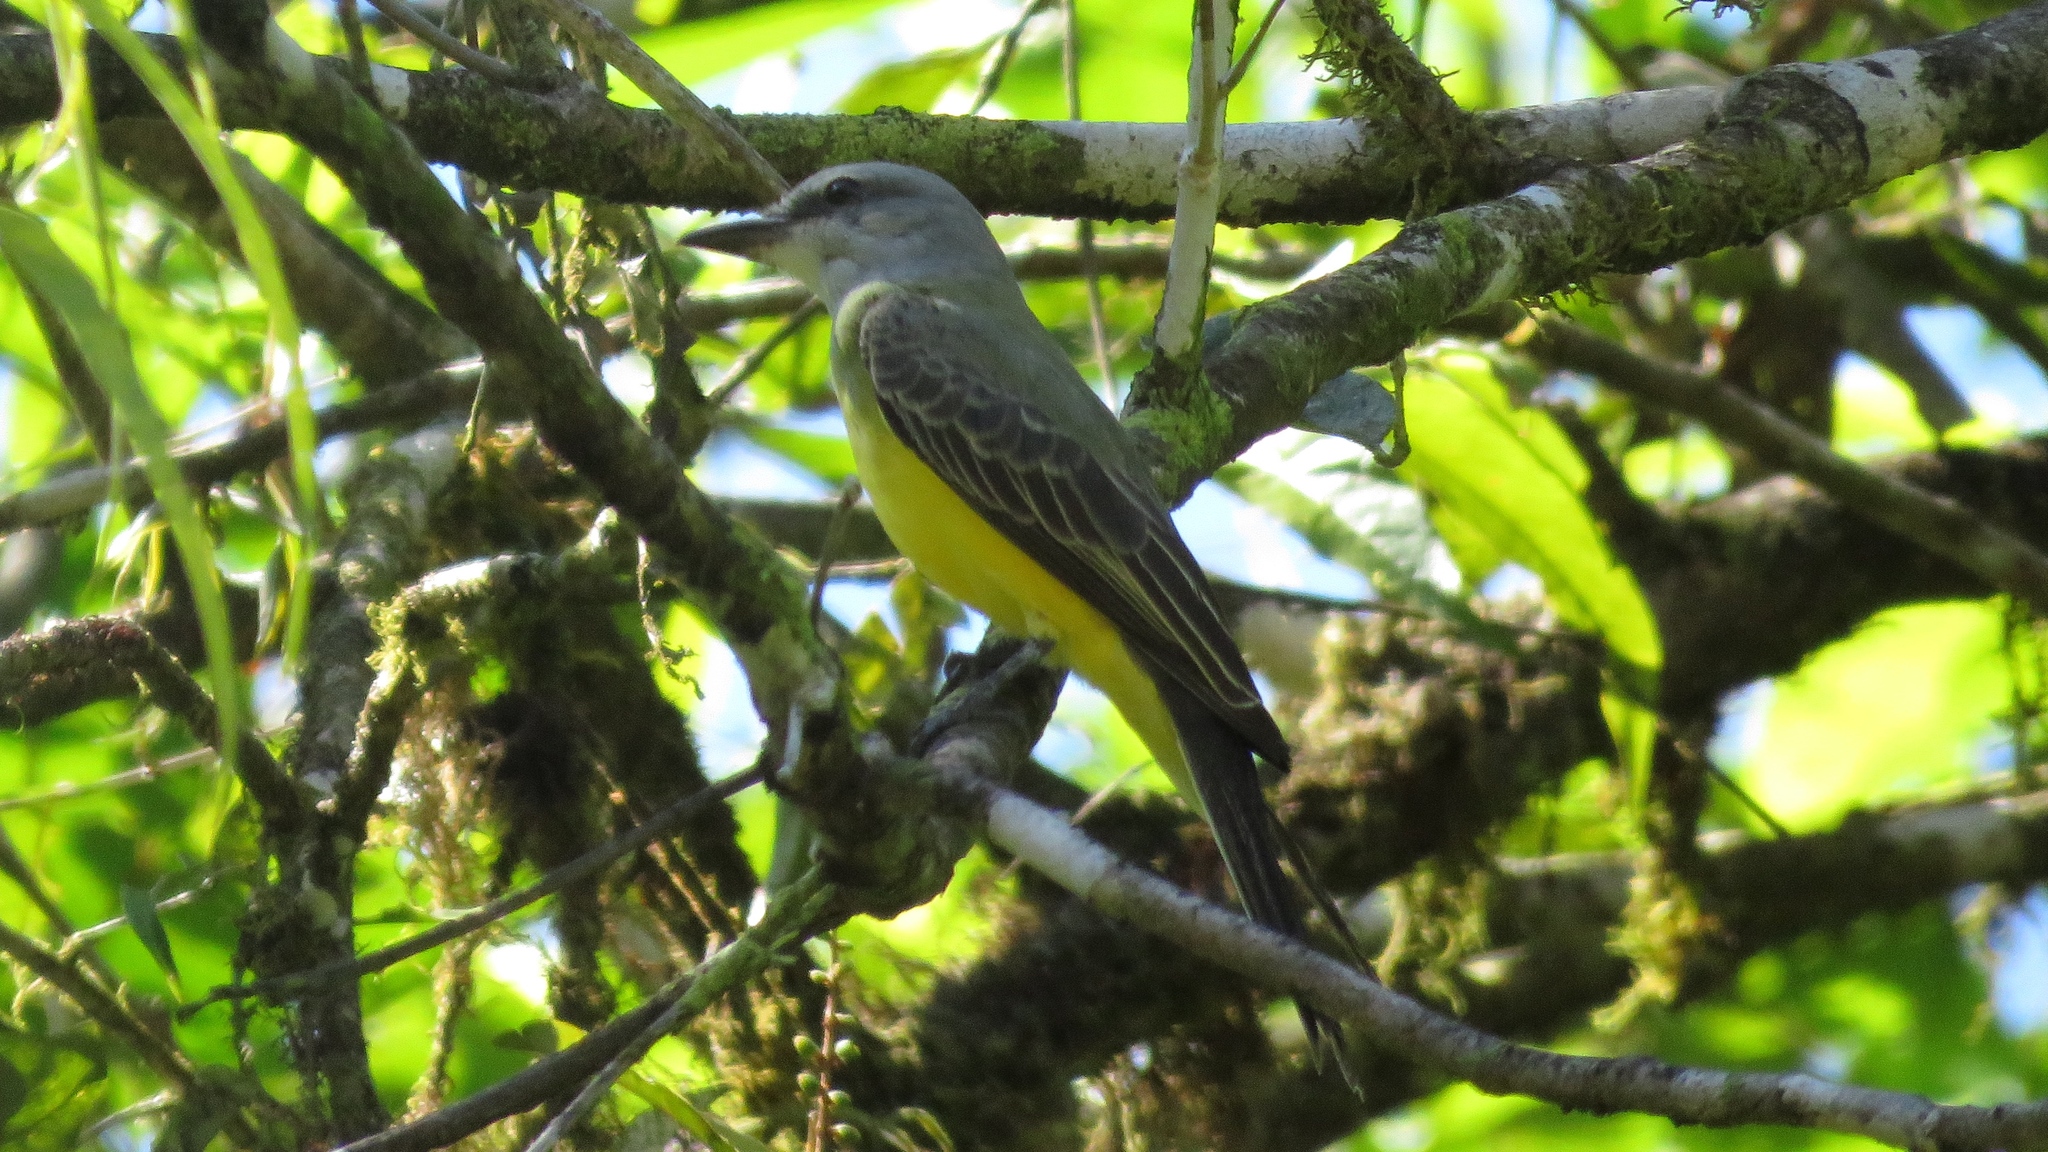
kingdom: Animalia
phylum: Chordata
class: Aves
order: Passeriformes
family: Tyrannidae
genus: Tyrannus
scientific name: Tyrannus melancholicus
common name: Tropical kingbird
